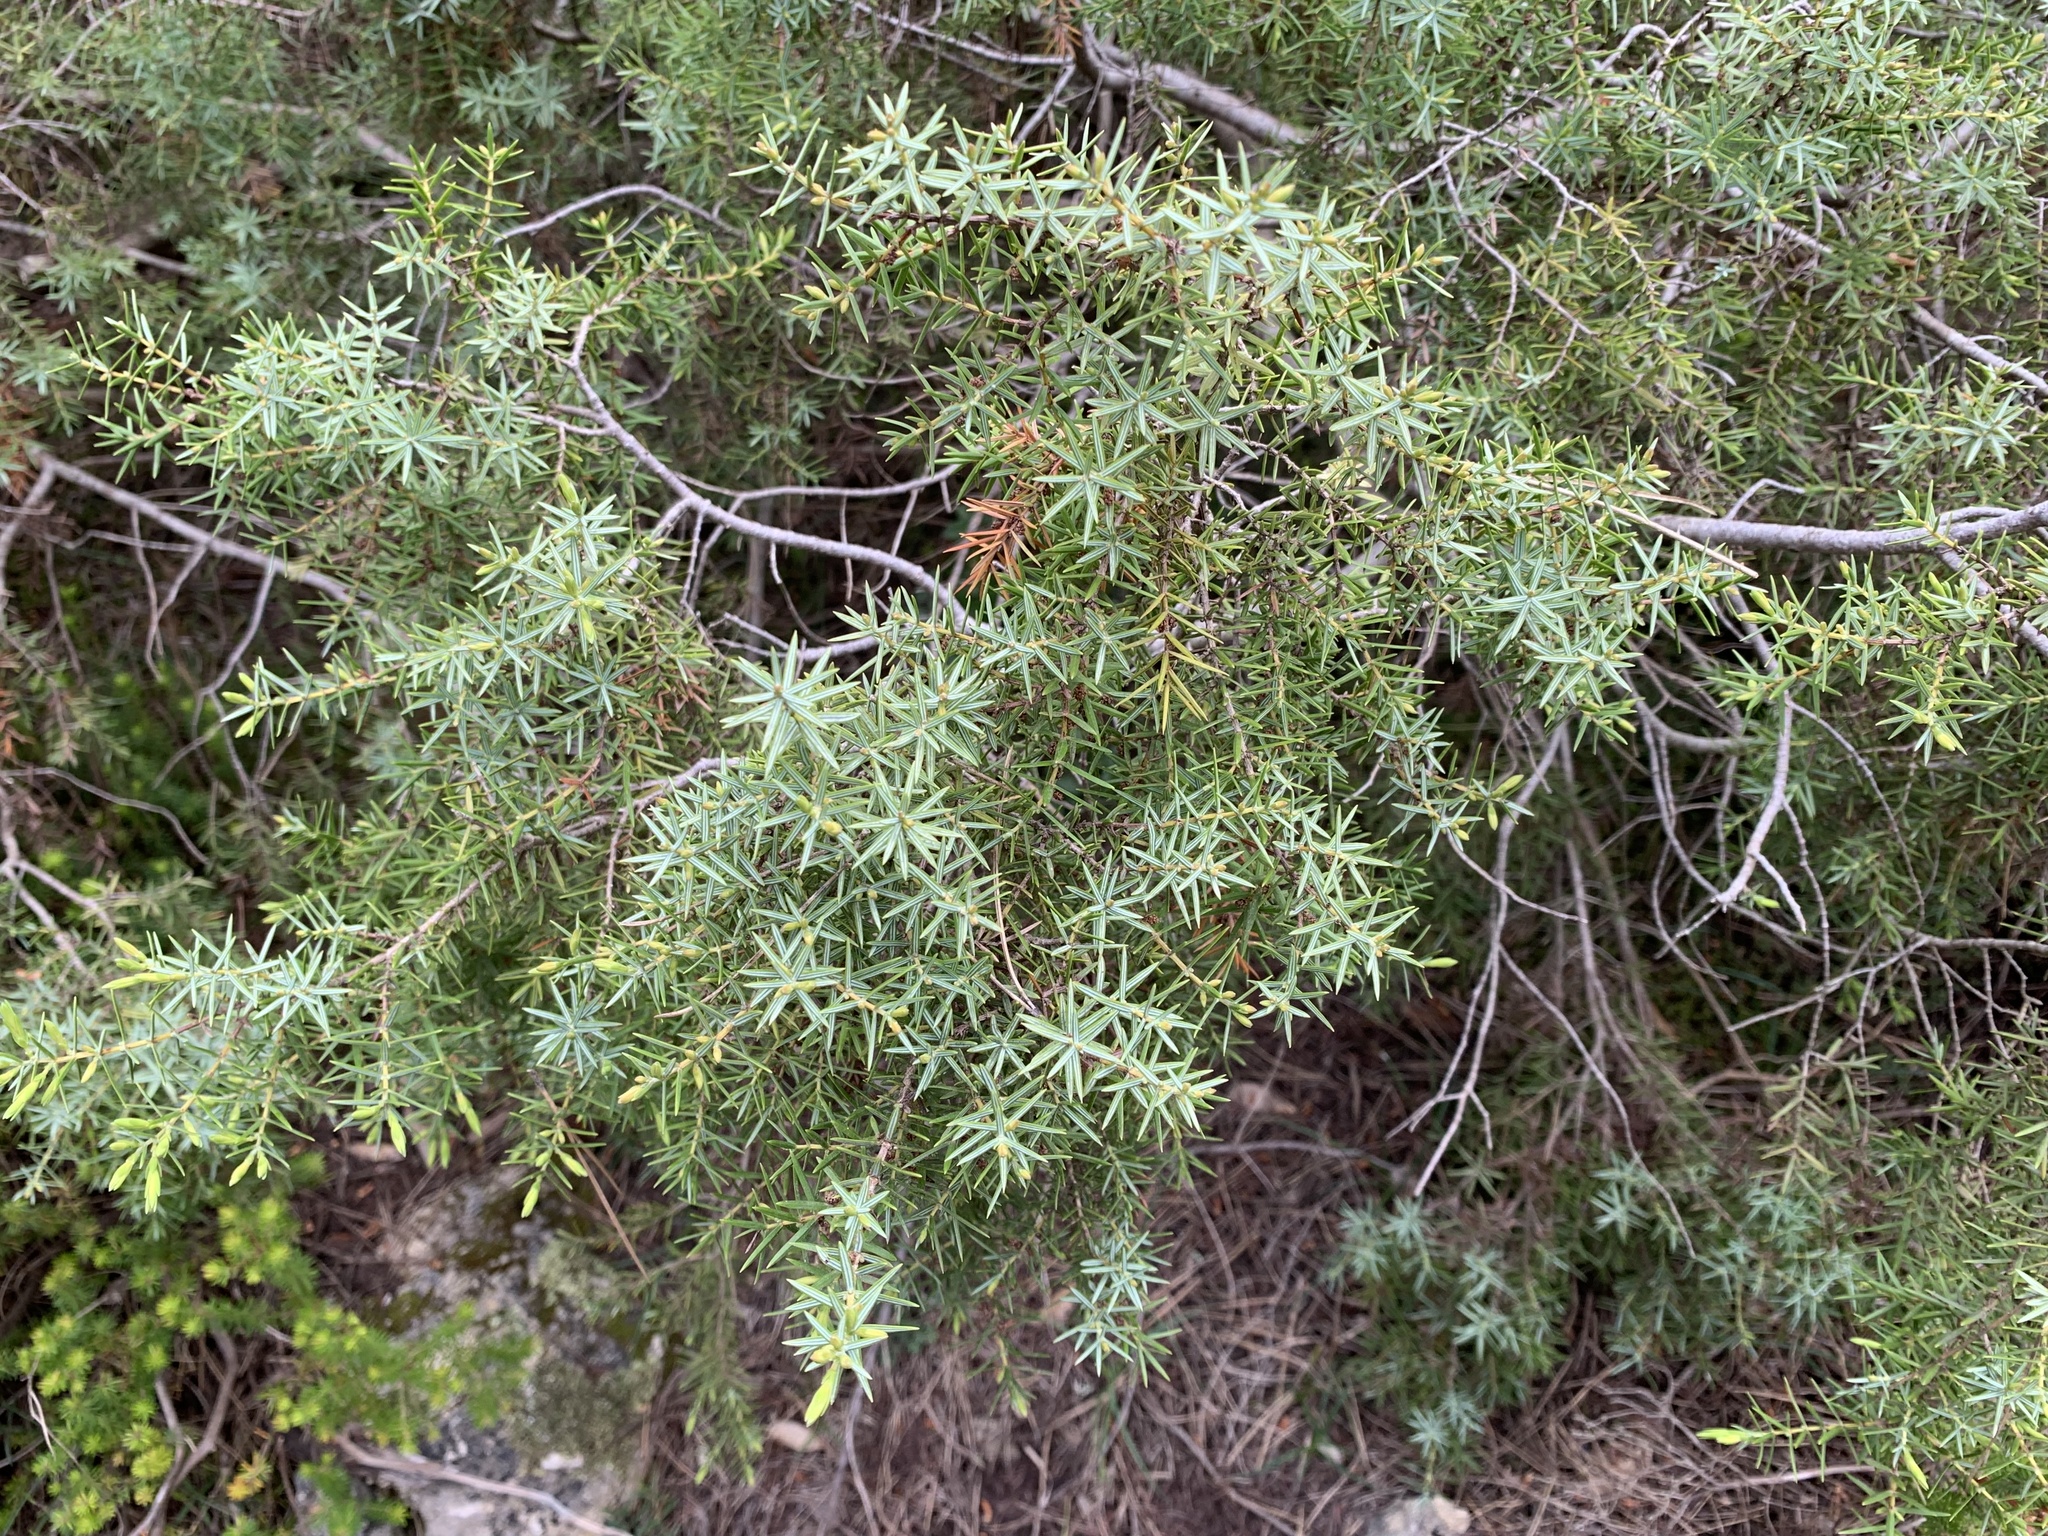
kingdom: Plantae
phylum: Tracheophyta
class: Pinopsida
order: Pinales
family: Cupressaceae
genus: Juniperus
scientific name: Juniperus oxycedrus
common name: Prickly juniper
